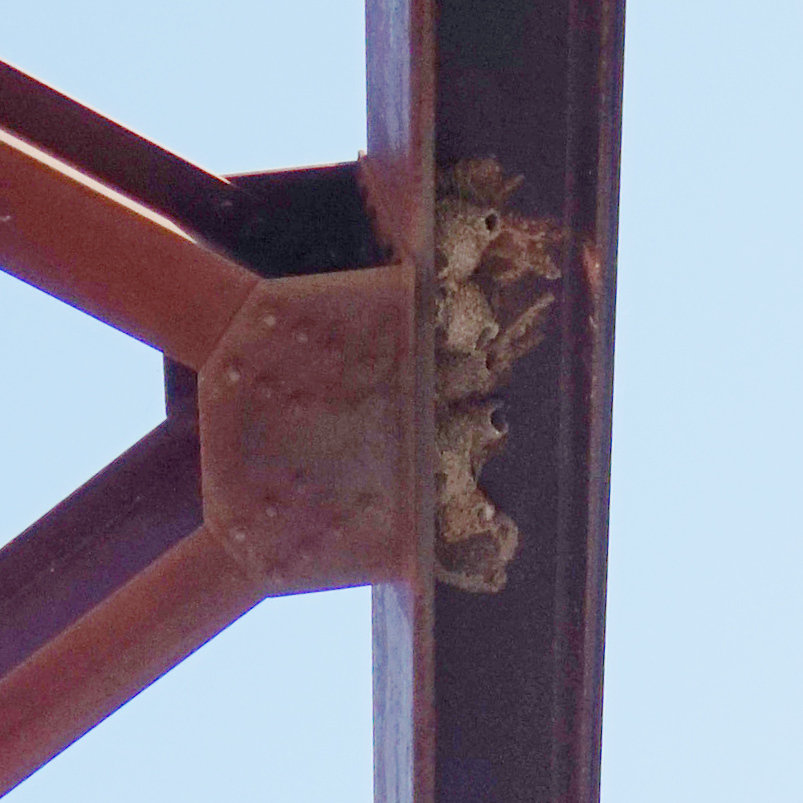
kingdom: Animalia
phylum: Chordata
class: Aves
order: Passeriformes
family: Hirundinidae
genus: Petrochelidon
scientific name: Petrochelidon pyrrhonota
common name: American cliff swallow
